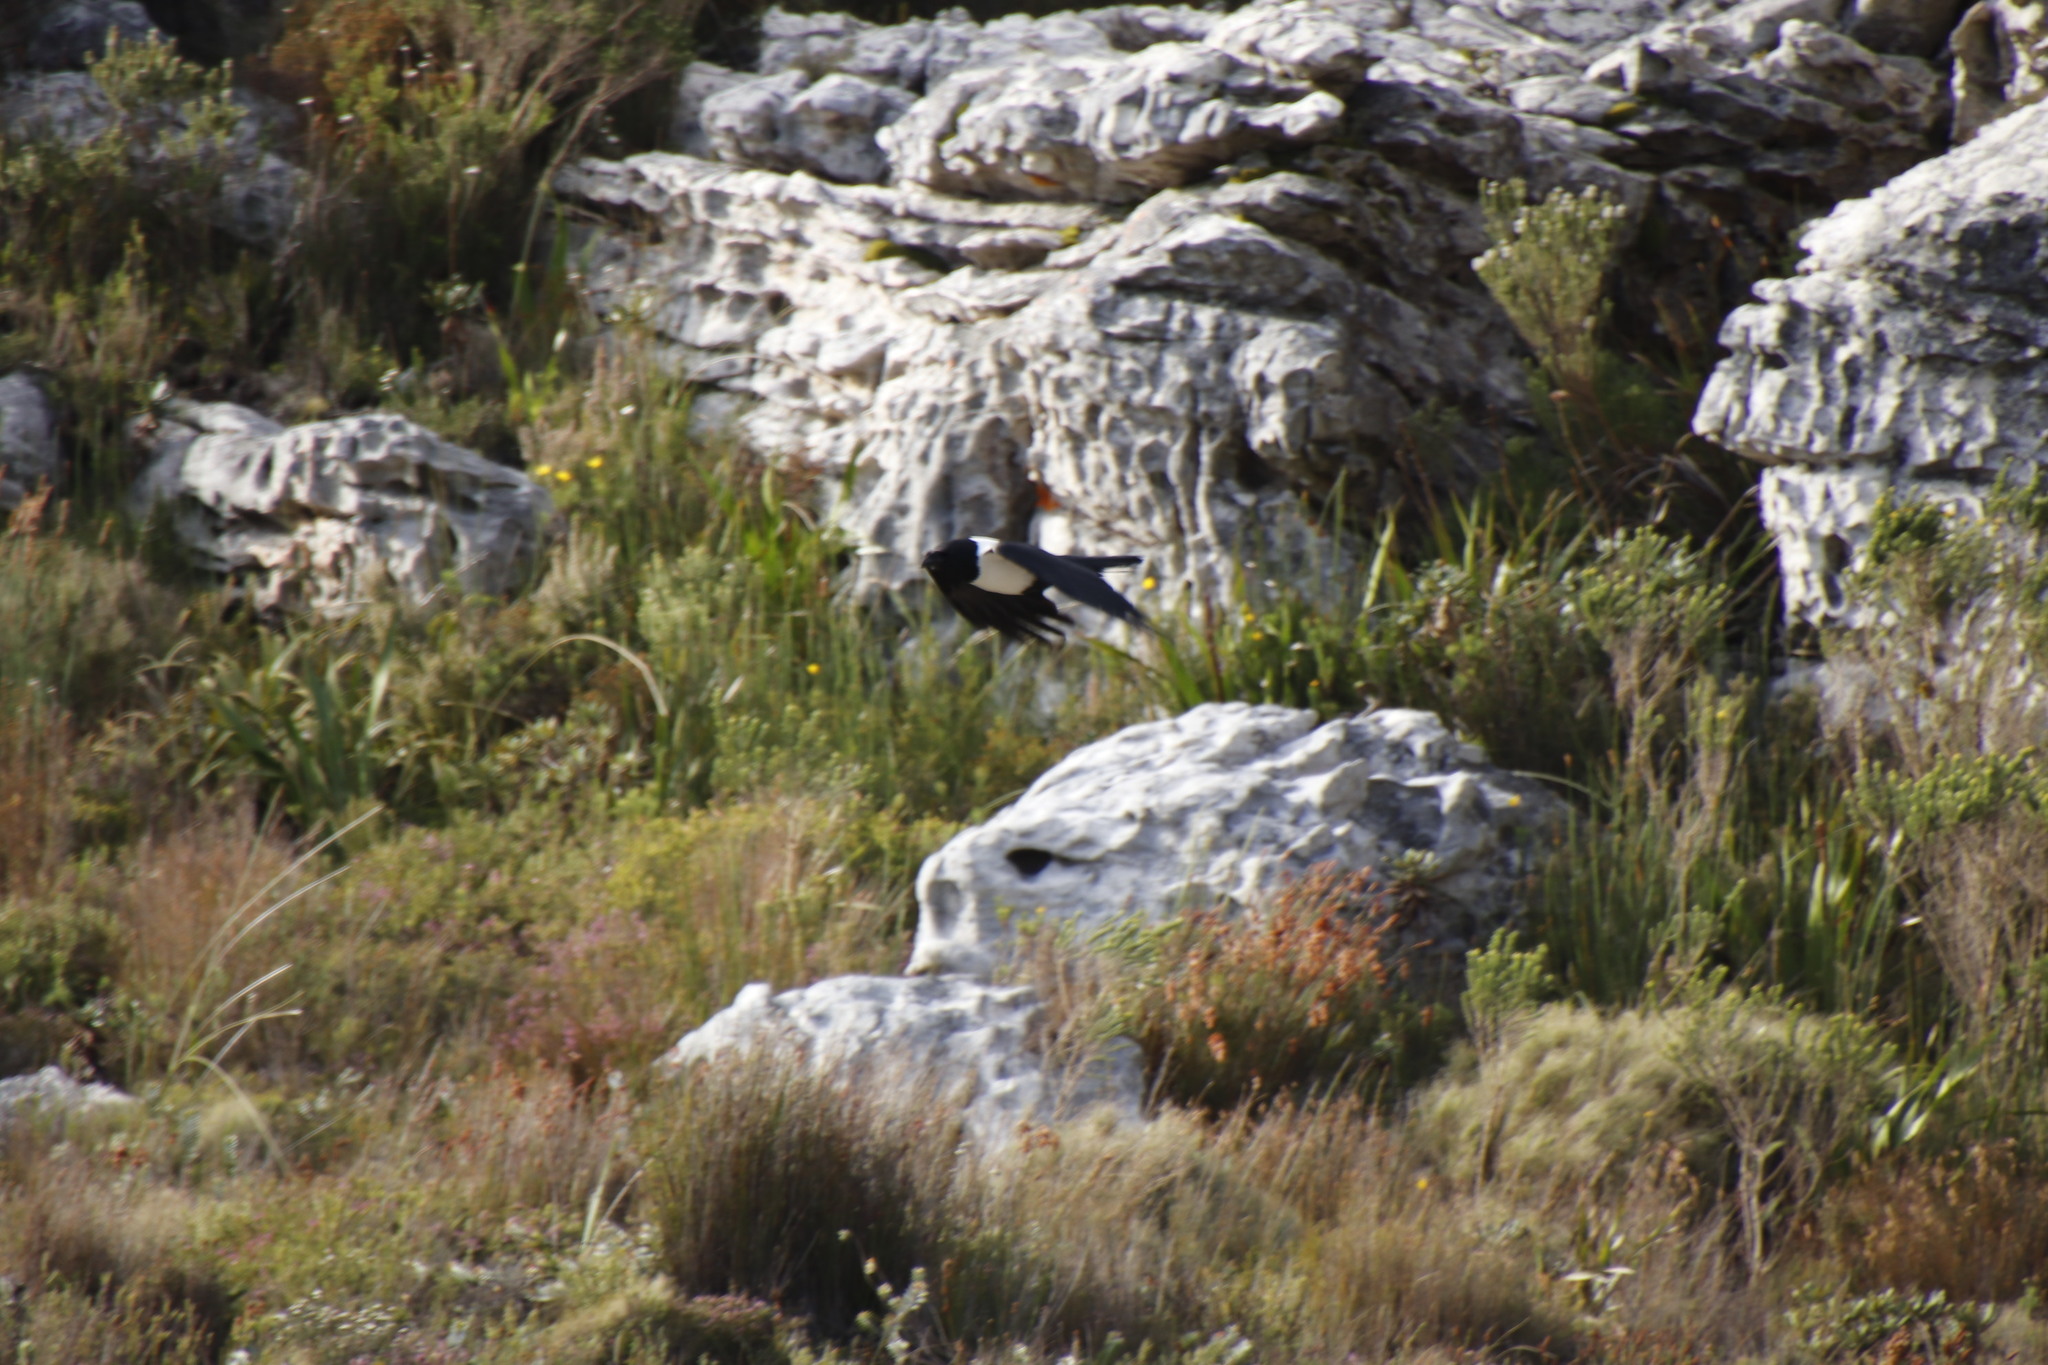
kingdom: Animalia
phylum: Chordata
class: Aves
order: Passeriformes
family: Corvidae
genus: Corvus
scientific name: Corvus albus
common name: Pied crow
